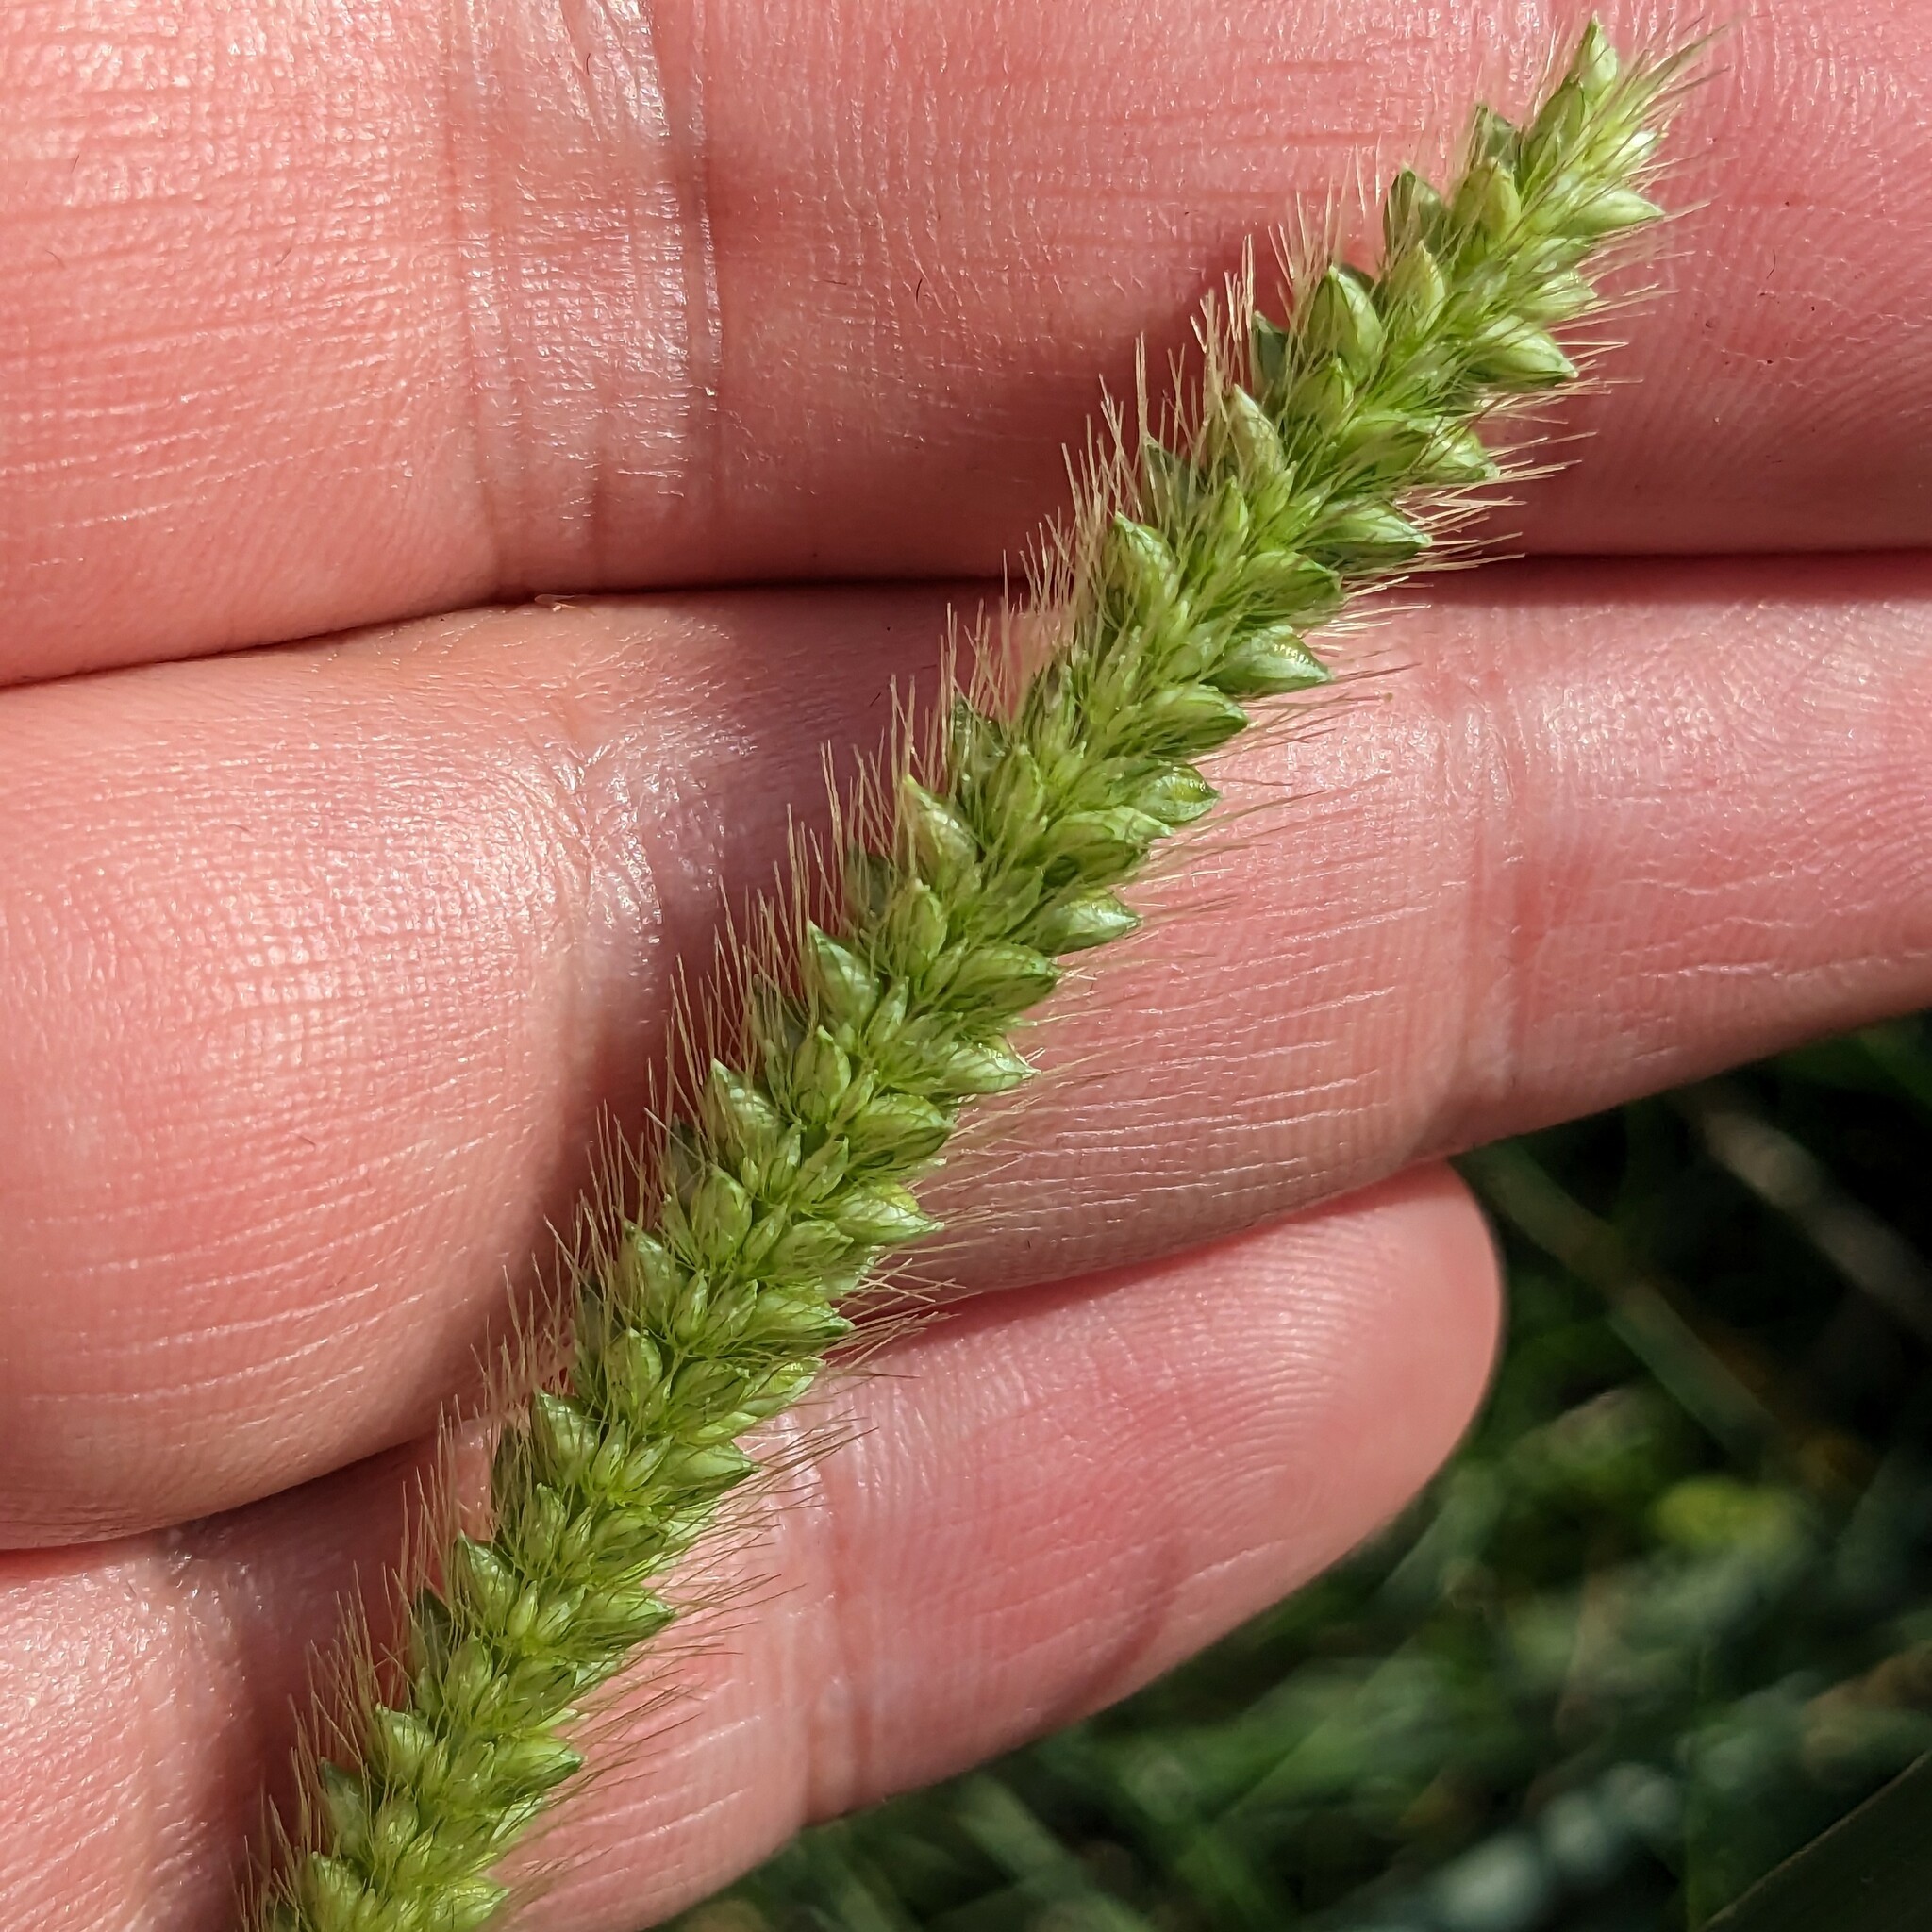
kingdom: Plantae
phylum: Tracheophyta
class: Liliopsida
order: Poales
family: Poaceae
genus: Setaria
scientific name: Setaria pumila
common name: Yellow bristle-grass
